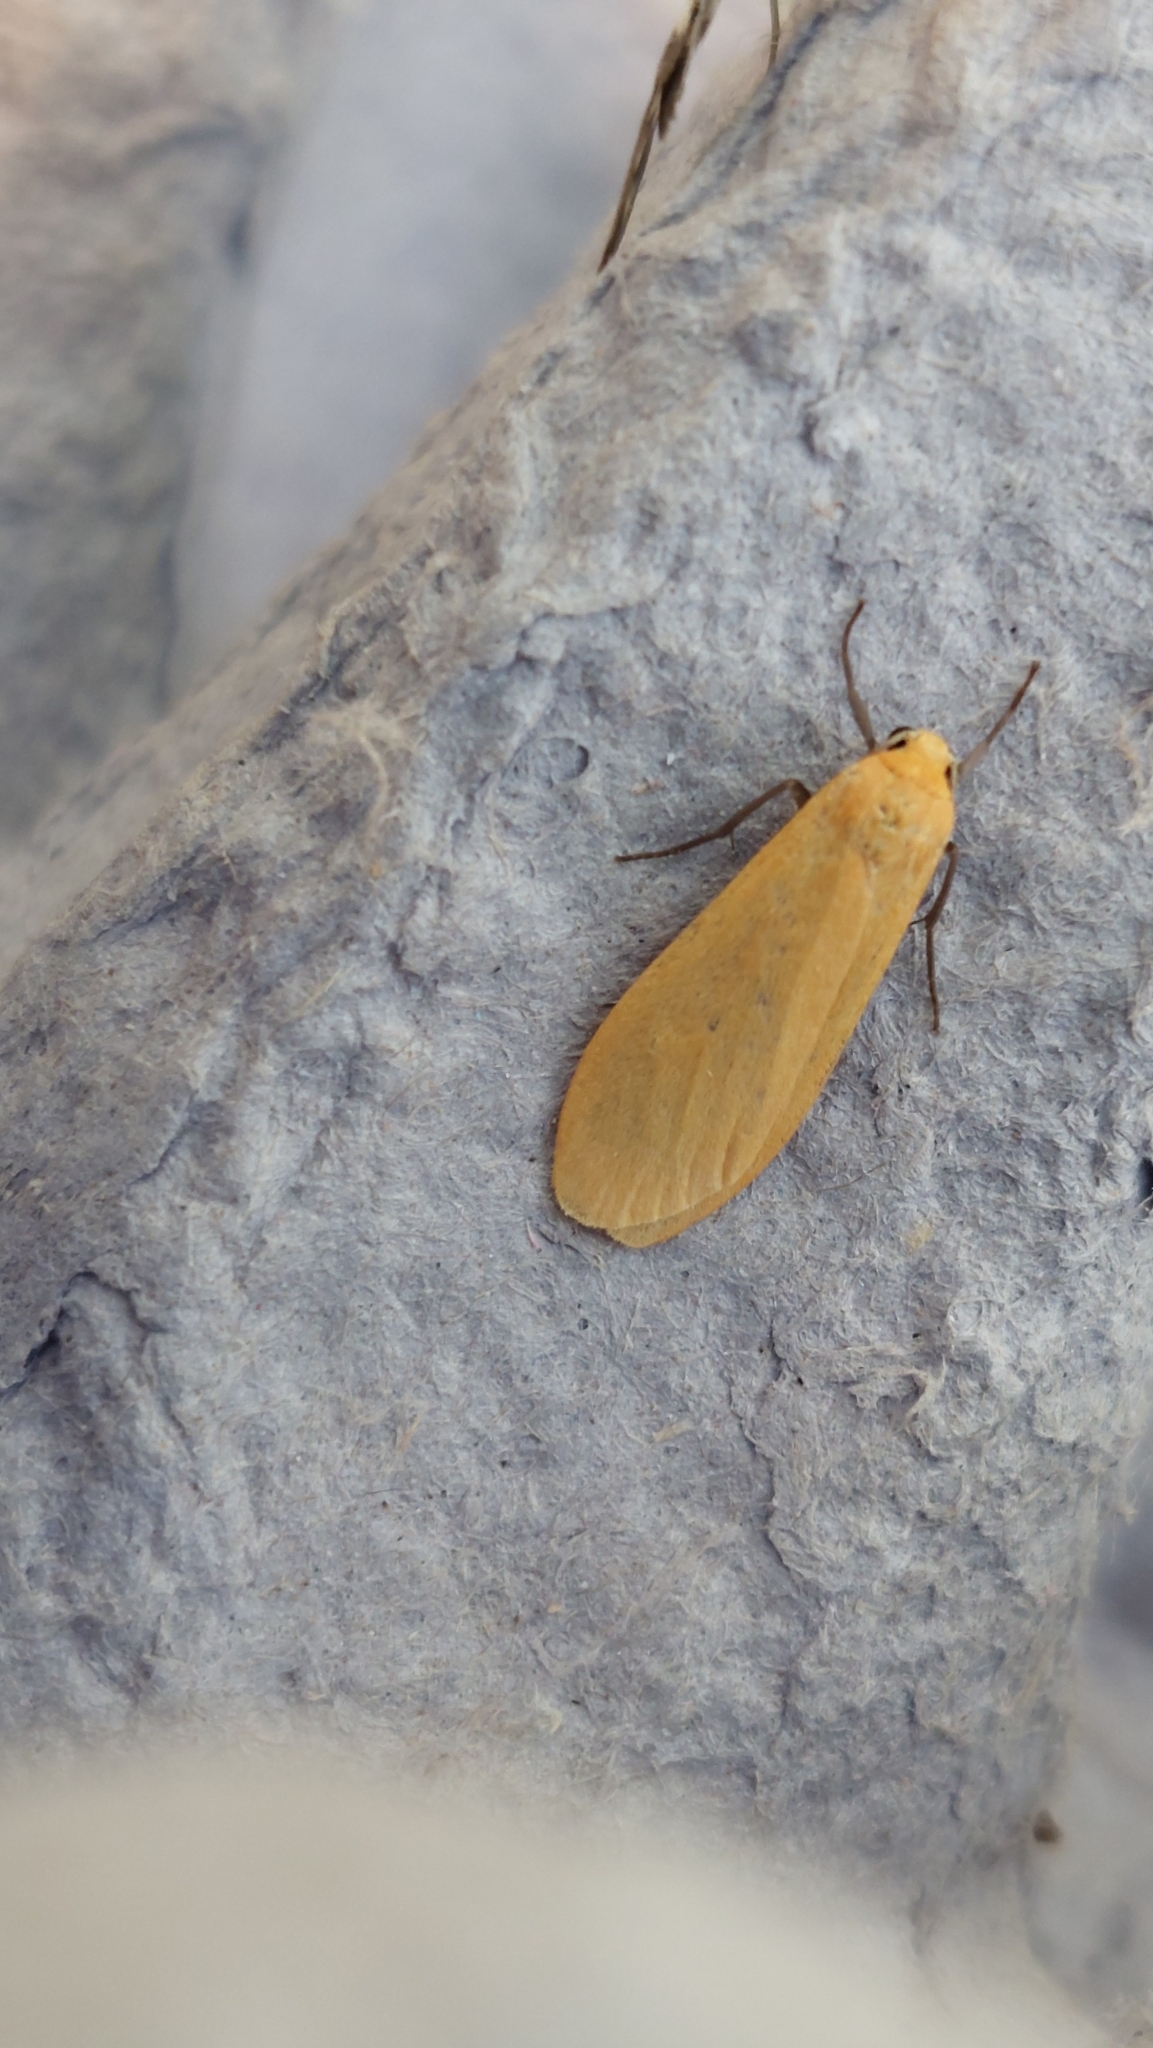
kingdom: Animalia
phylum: Arthropoda
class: Insecta
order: Lepidoptera
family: Erebidae
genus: Wittia
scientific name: Wittia sororcula
